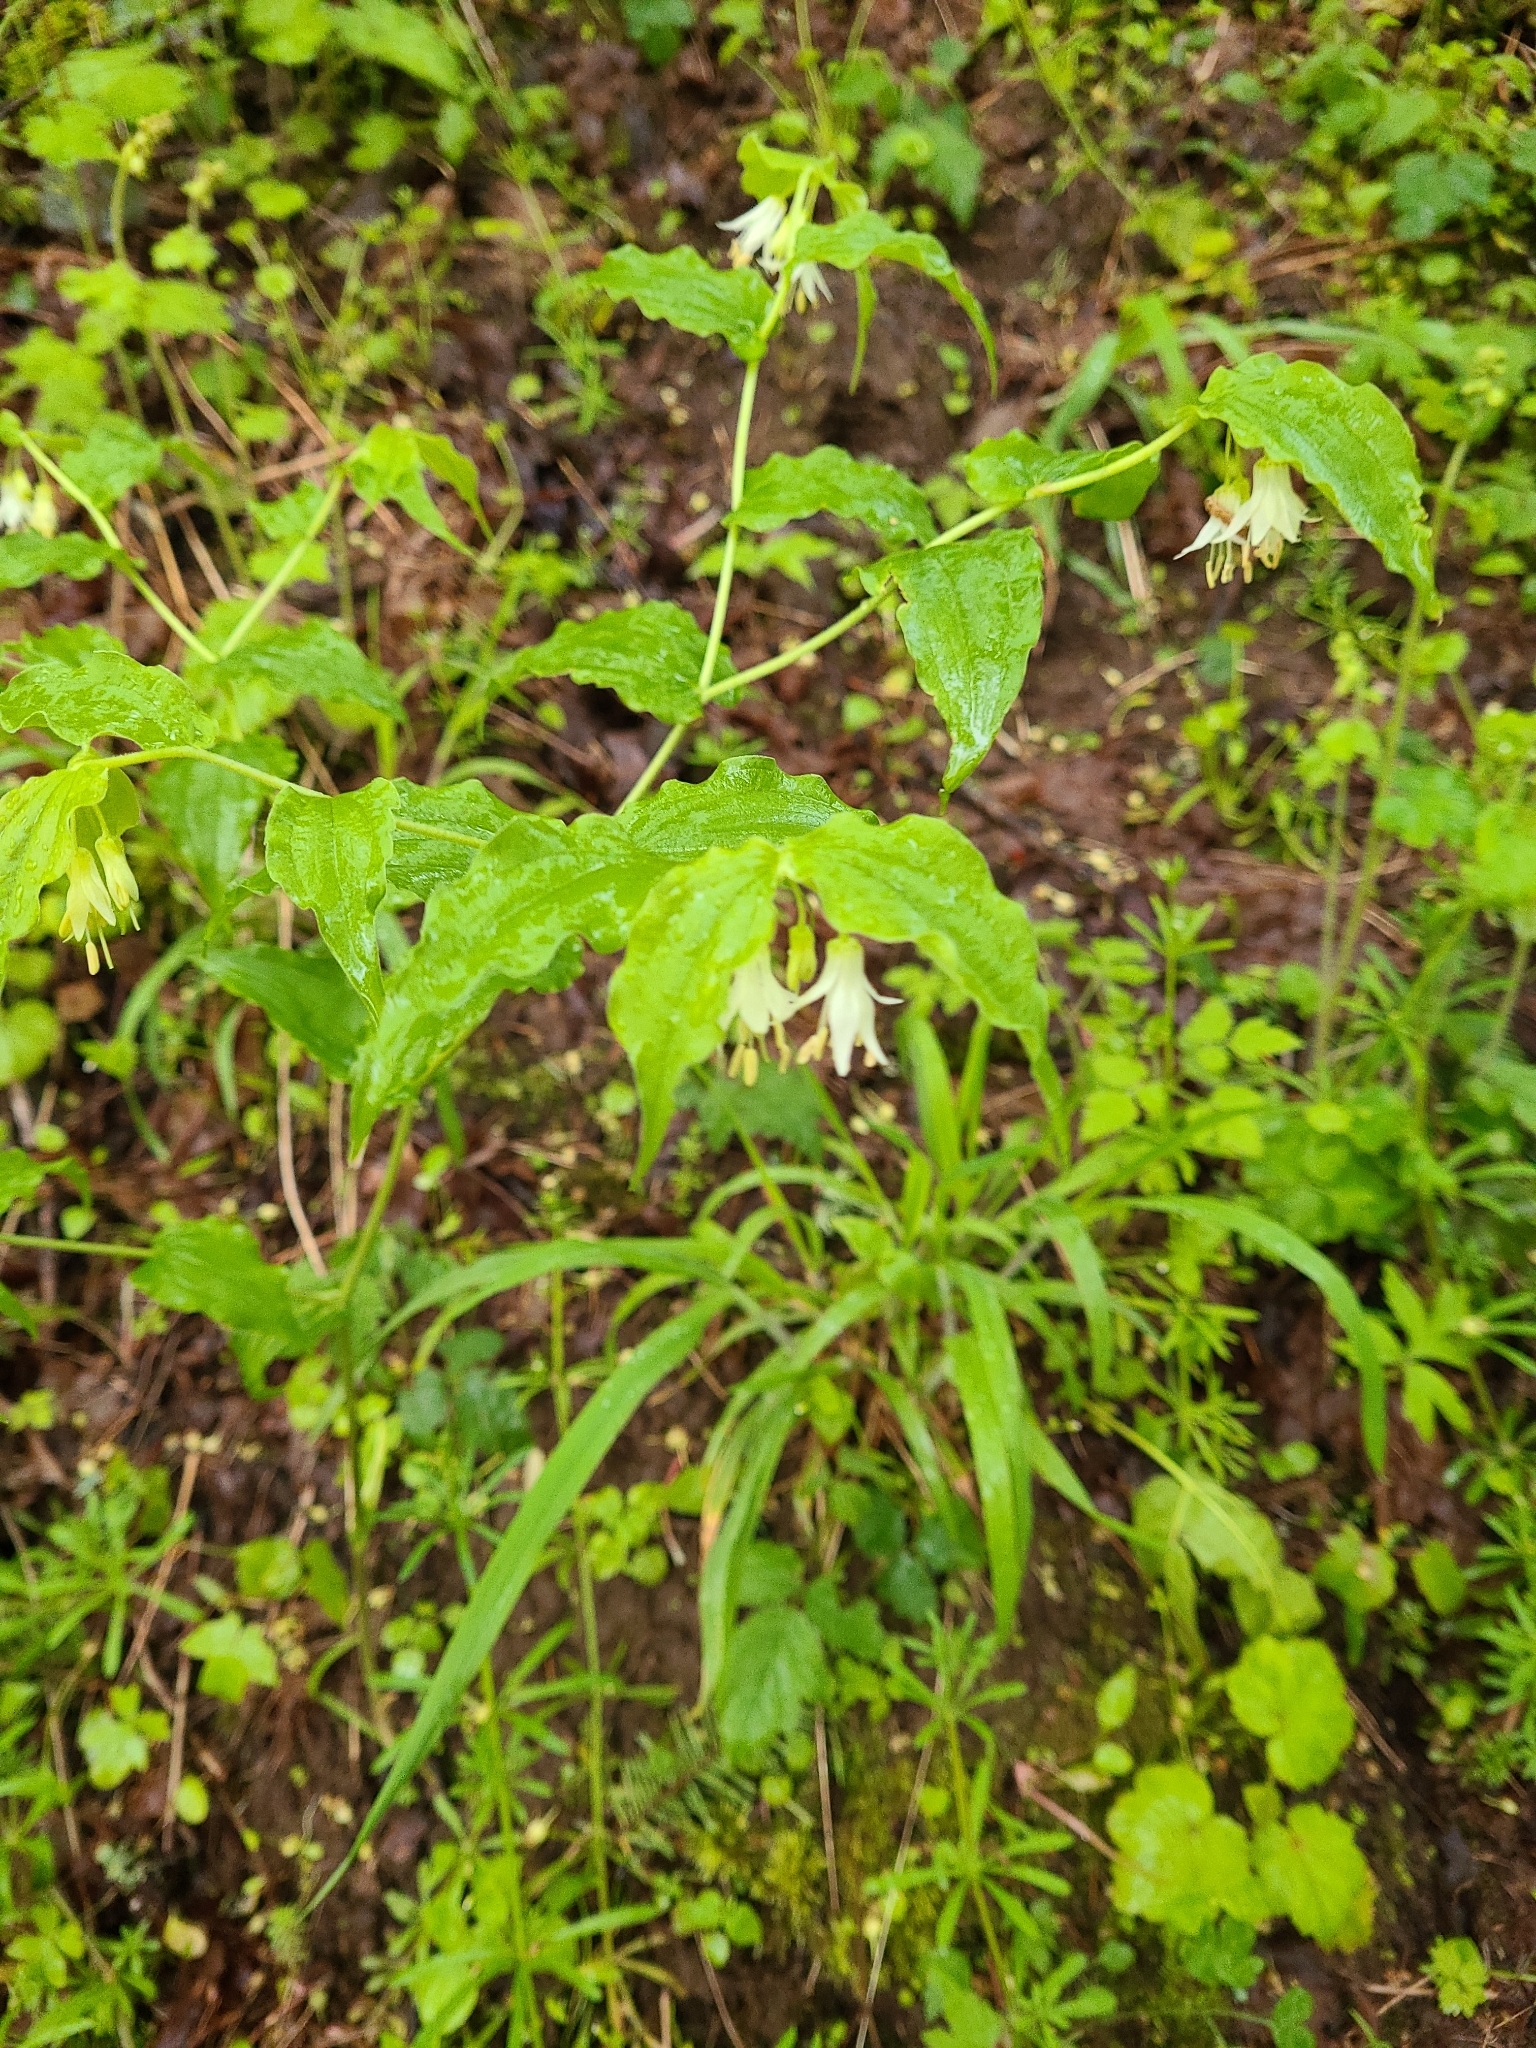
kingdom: Plantae
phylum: Tracheophyta
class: Liliopsida
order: Liliales
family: Liliaceae
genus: Prosartes
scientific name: Prosartes hookeri
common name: Fairy-bells
